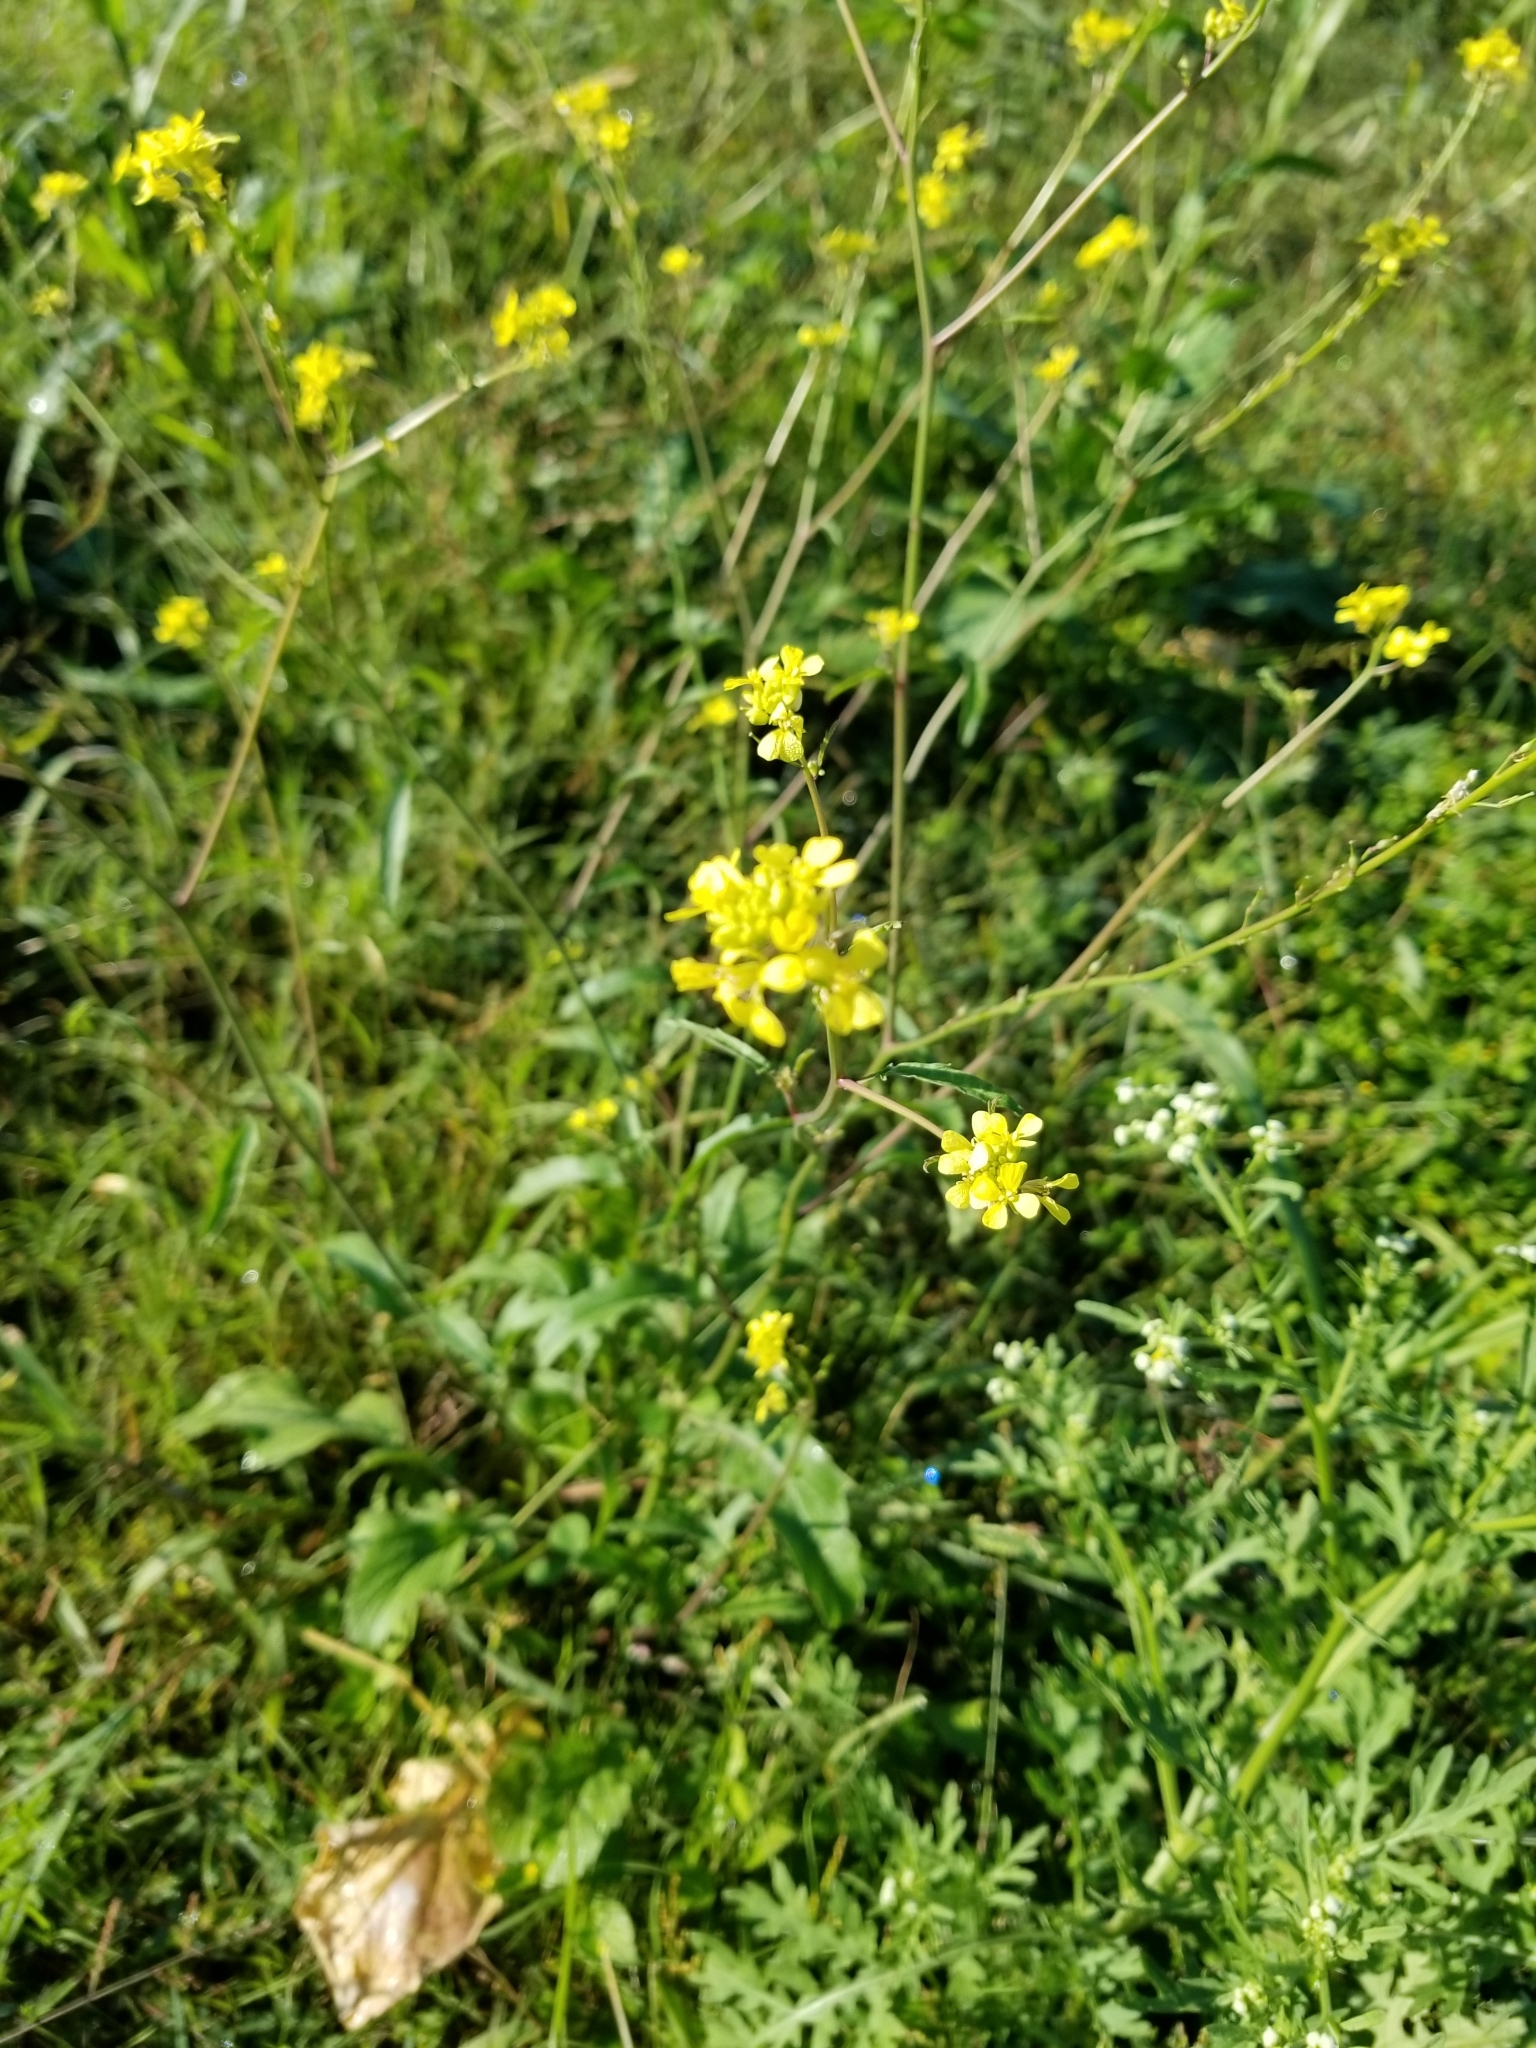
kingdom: Plantae
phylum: Tracheophyta
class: Magnoliopsida
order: Brassicales
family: Brassicaceae
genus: Rapistrum
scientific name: Rapistrum rugosum
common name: Annual bastardcabbage
